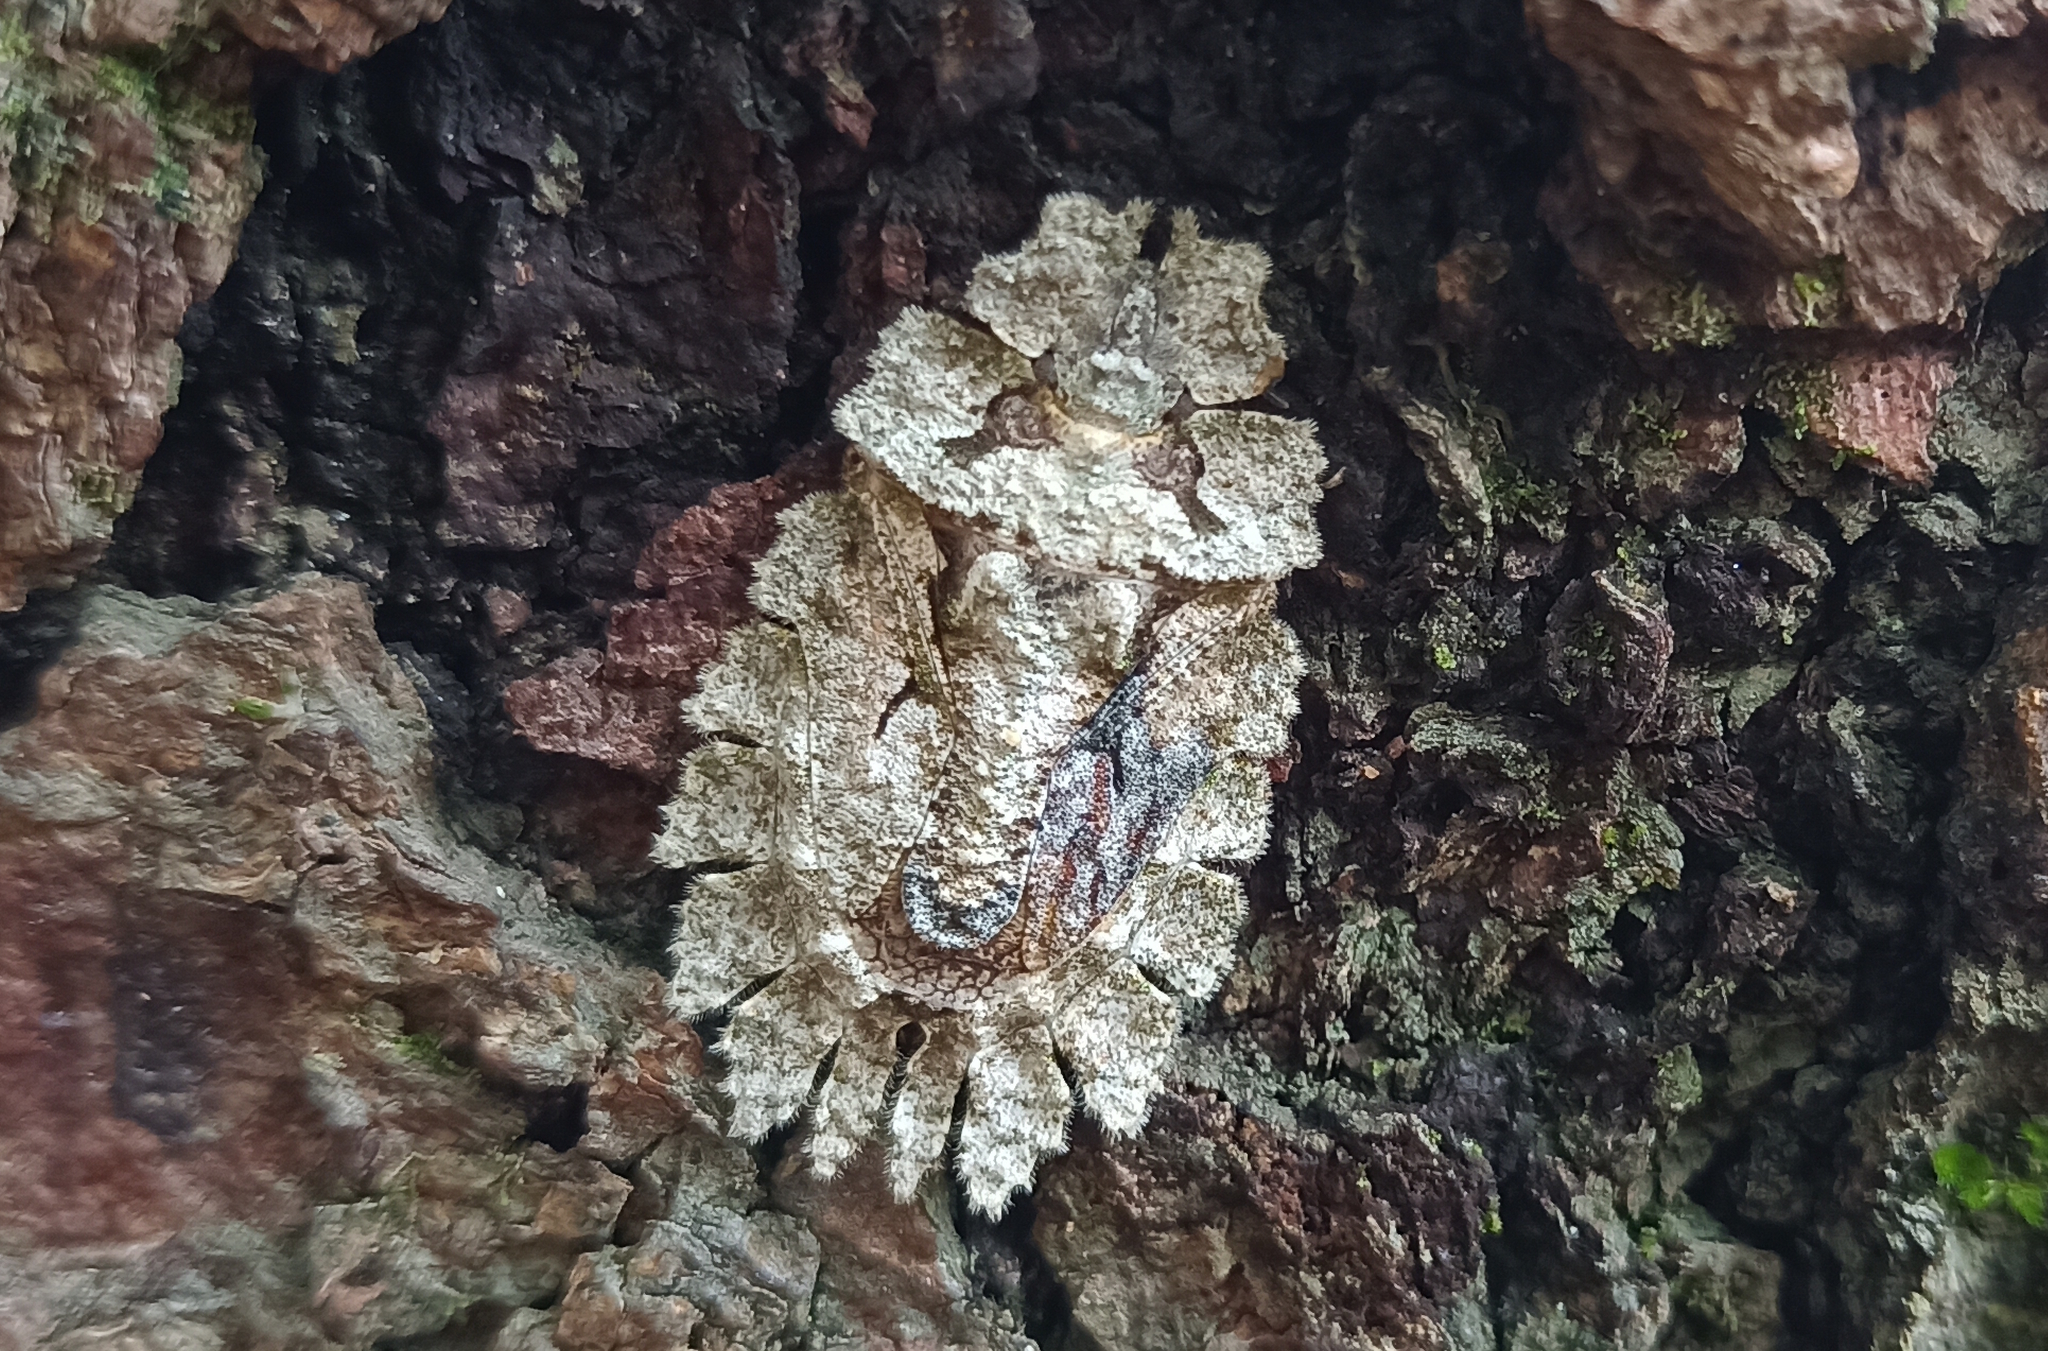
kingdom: Animalia
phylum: Arthropoda
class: Insecta
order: Hemiptera
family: Phloeidae
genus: Phloeophana
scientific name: Phloeophana longirostris
